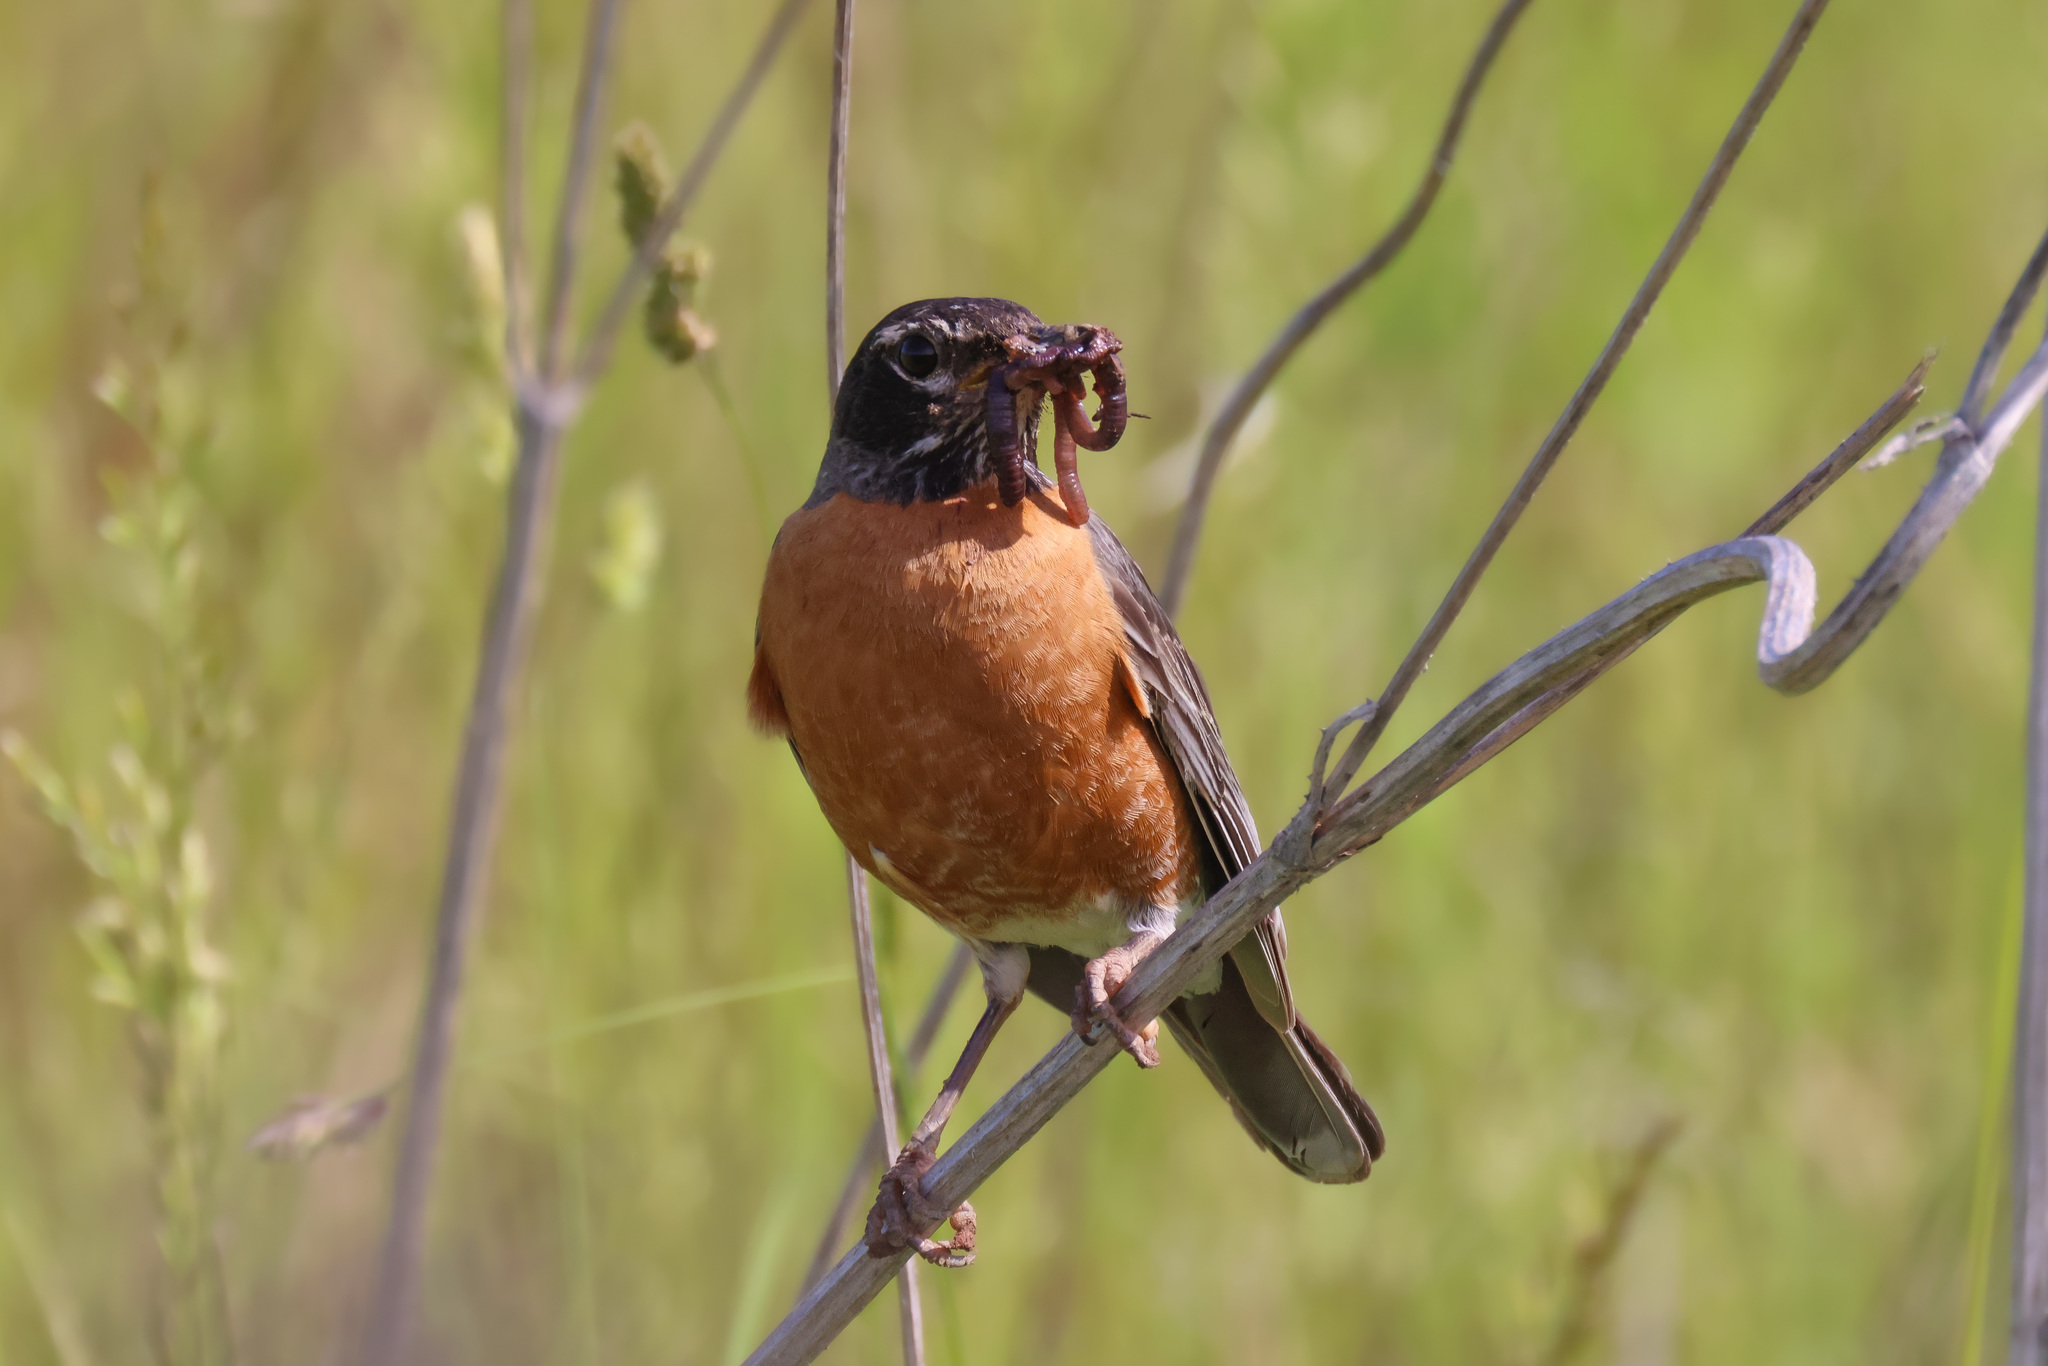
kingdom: Animalia
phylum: Chordata
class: Aves
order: Passeriformes
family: Turdidae
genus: Turdus
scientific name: Turdus migratorius
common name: American robin
